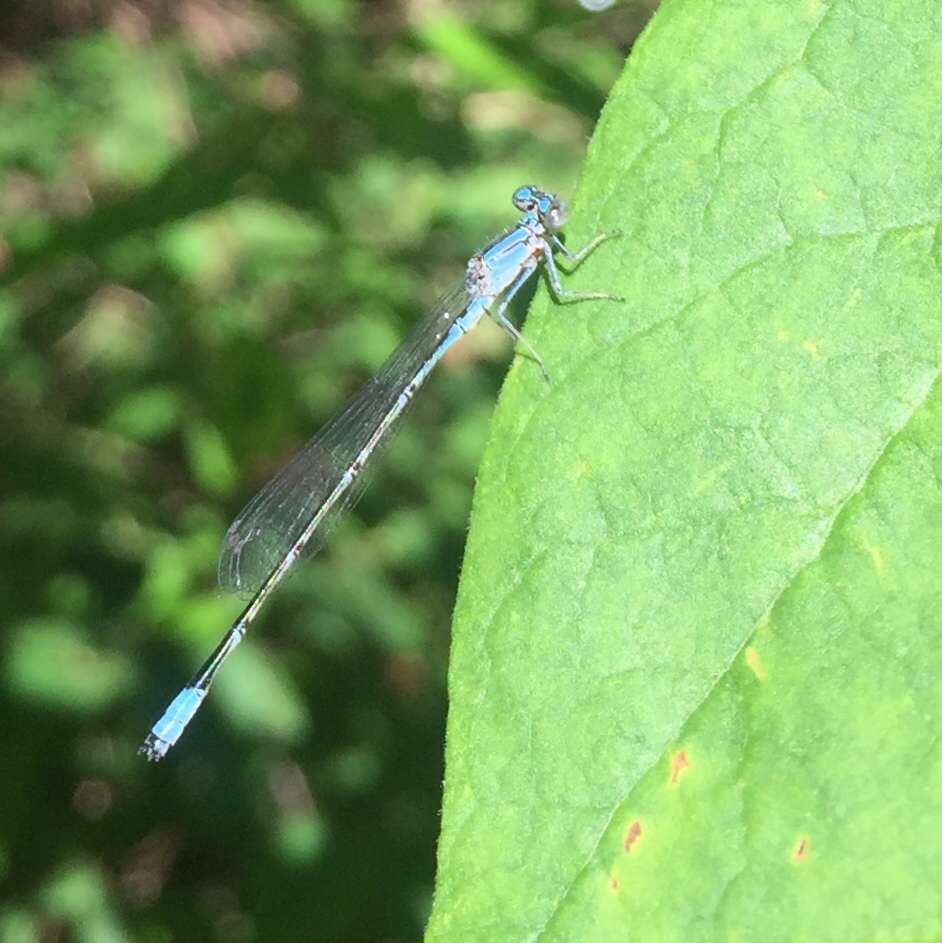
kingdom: Animalia
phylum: Arthropoda
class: Insecta
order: Odonata
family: Coenagrionidae
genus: Enallagma
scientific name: Enallagma traviatum
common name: Slender bluet
